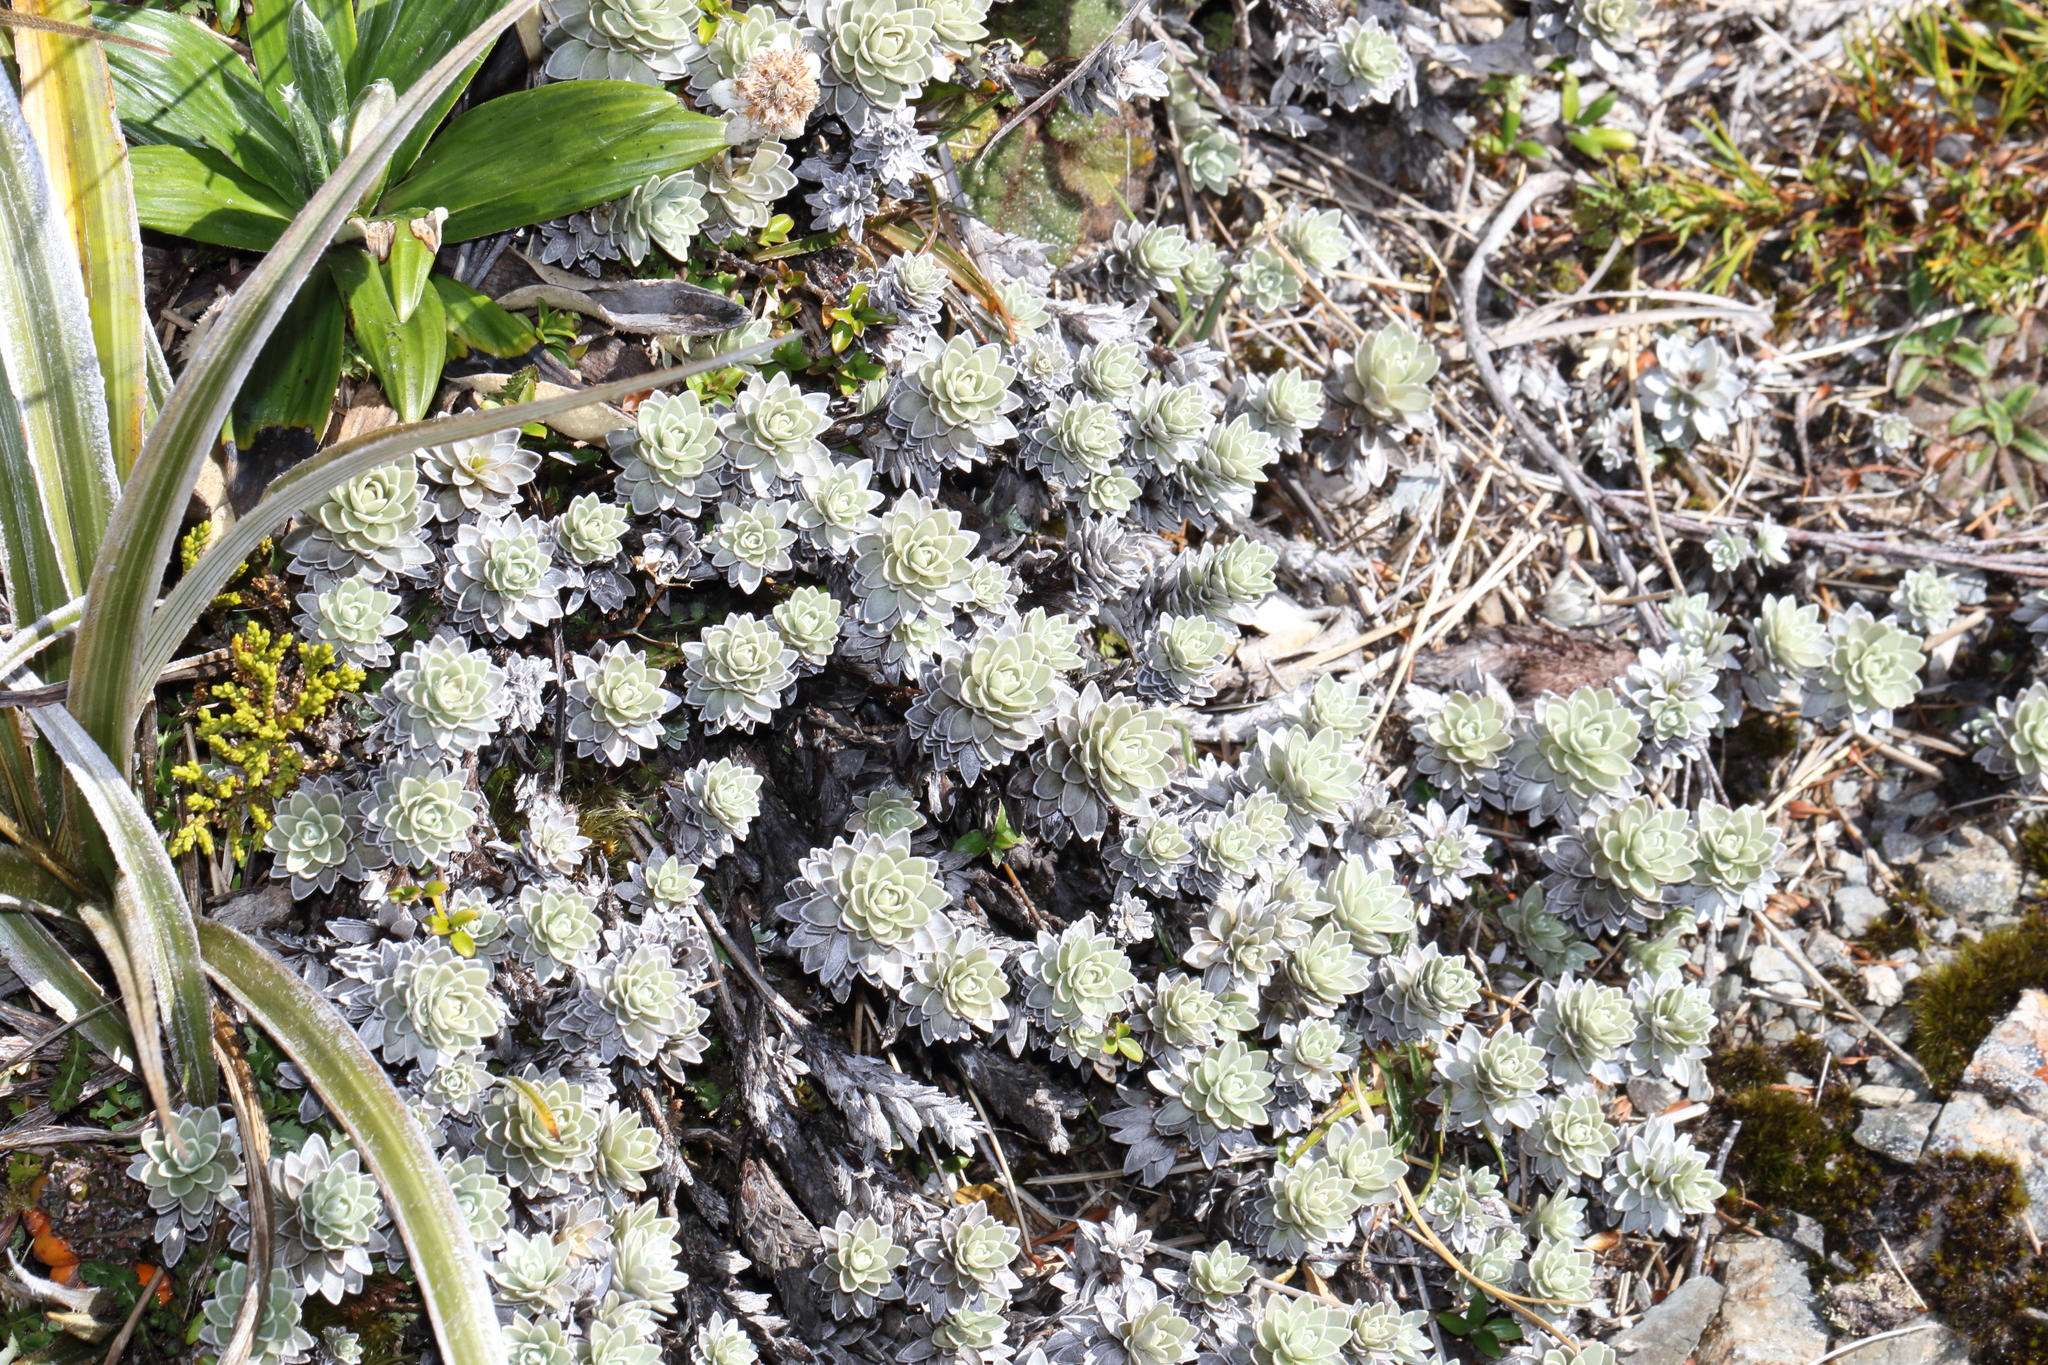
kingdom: Plantae
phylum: Tracheophyta
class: Magnoliopsida
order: Asterales
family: Asteraceae
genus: Leucogenes
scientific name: Leucogenes leontopodium
